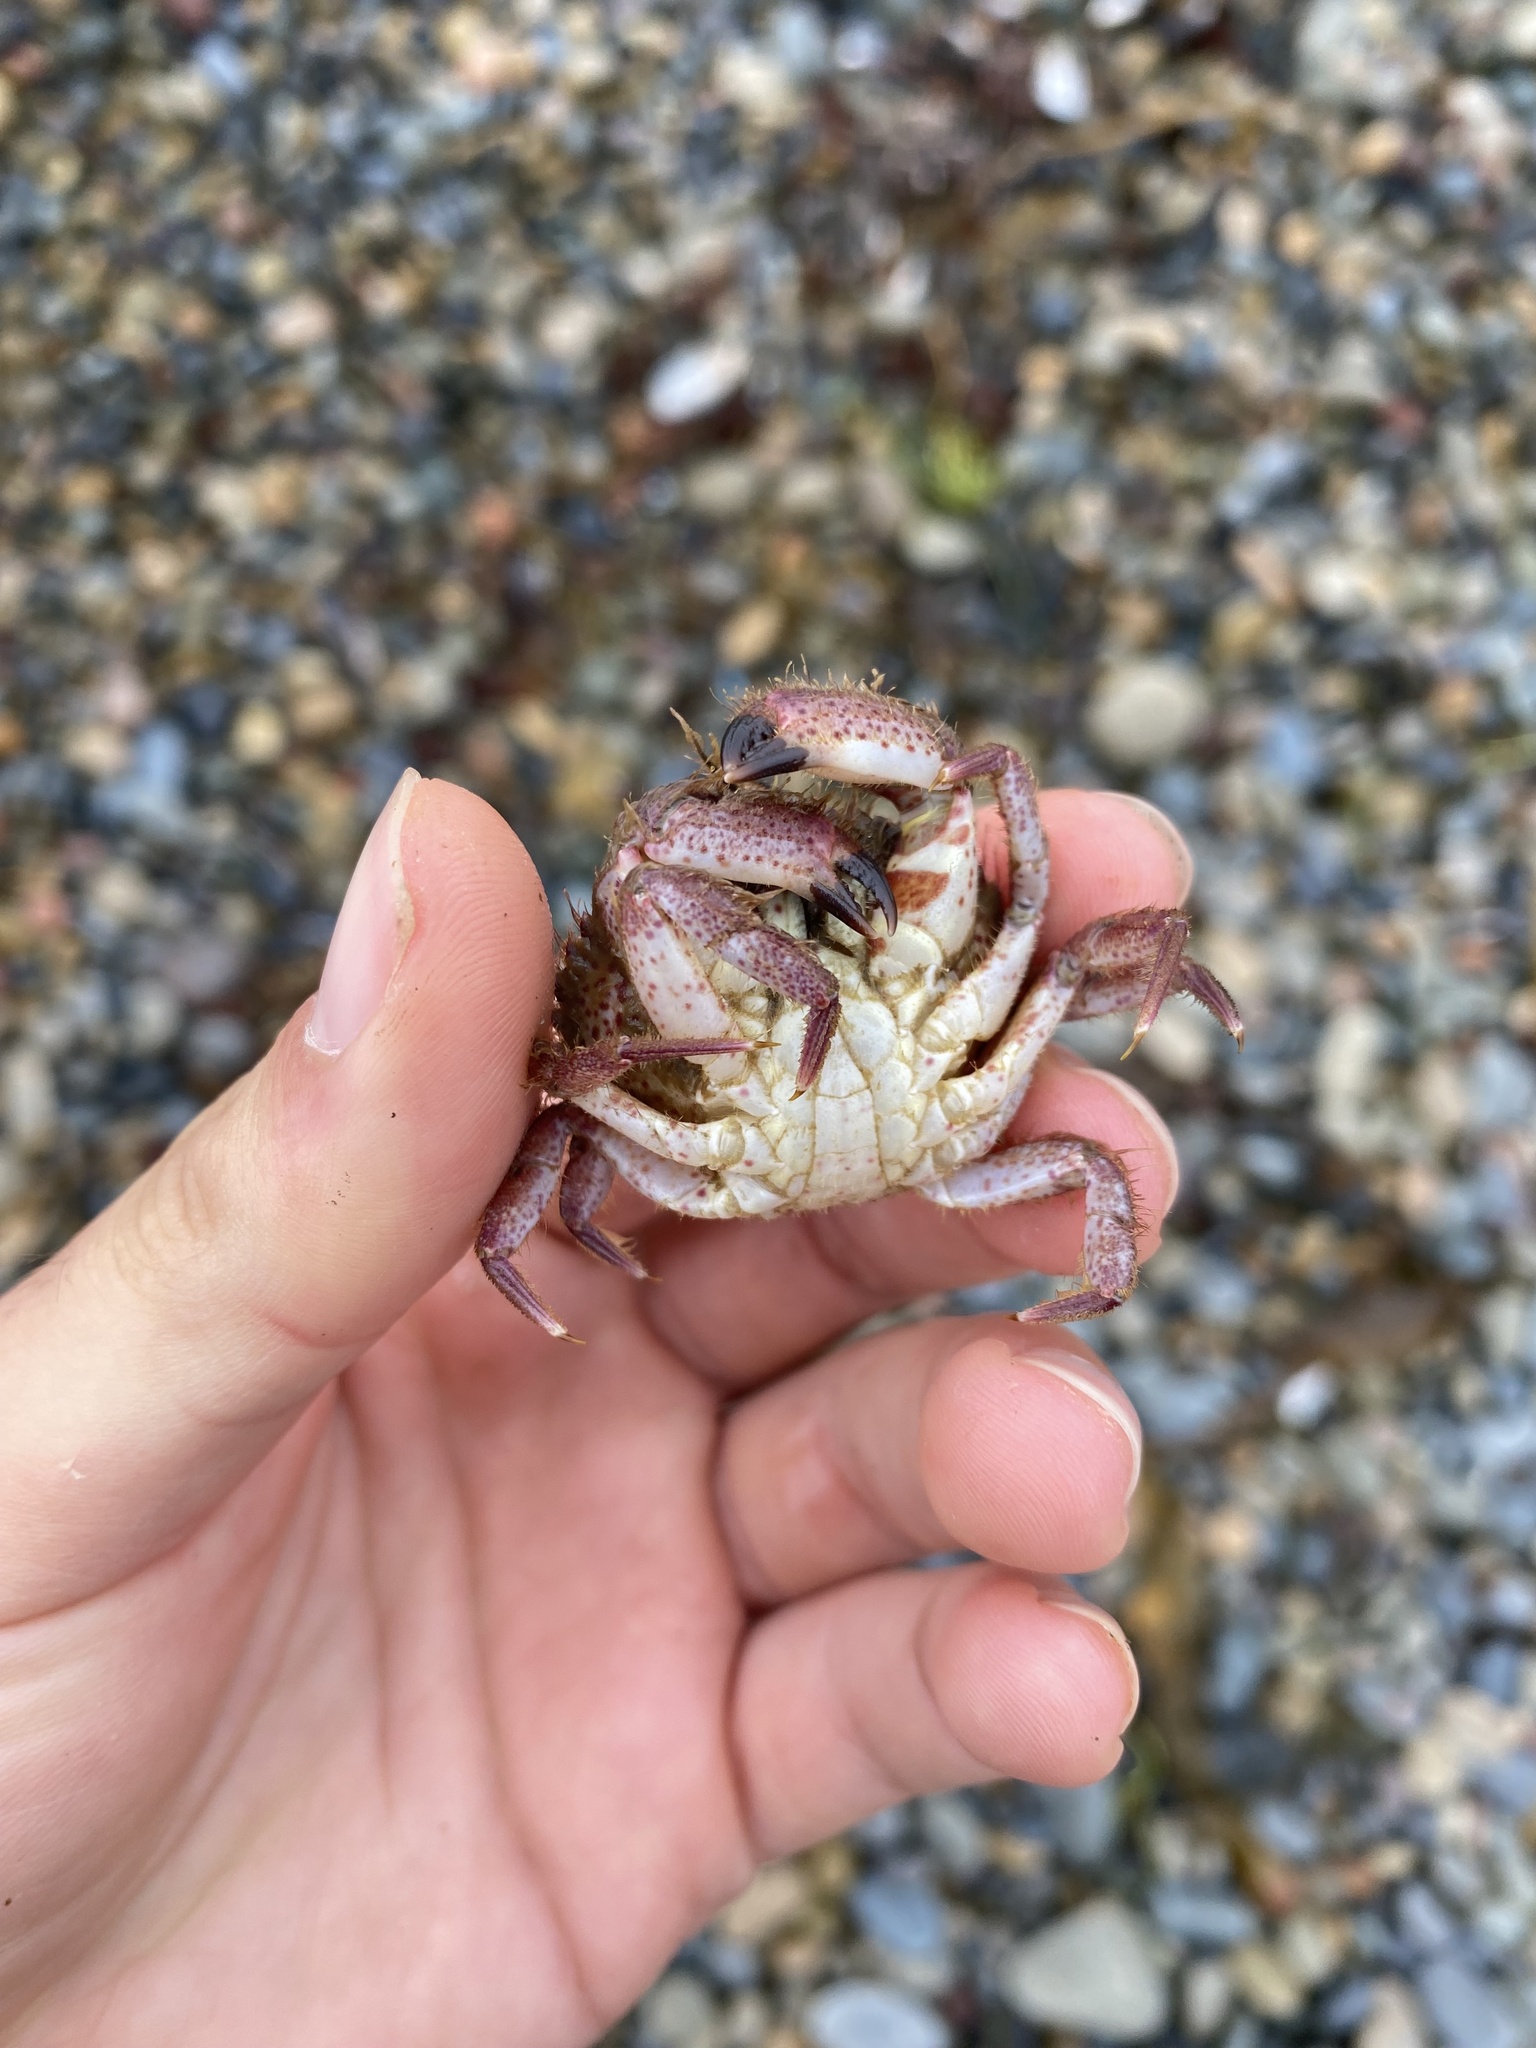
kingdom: Animalia
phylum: Arthropoda
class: Malacostraca
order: Decapoda
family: Cancridae
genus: Romaleon
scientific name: Romaleon antennarium
